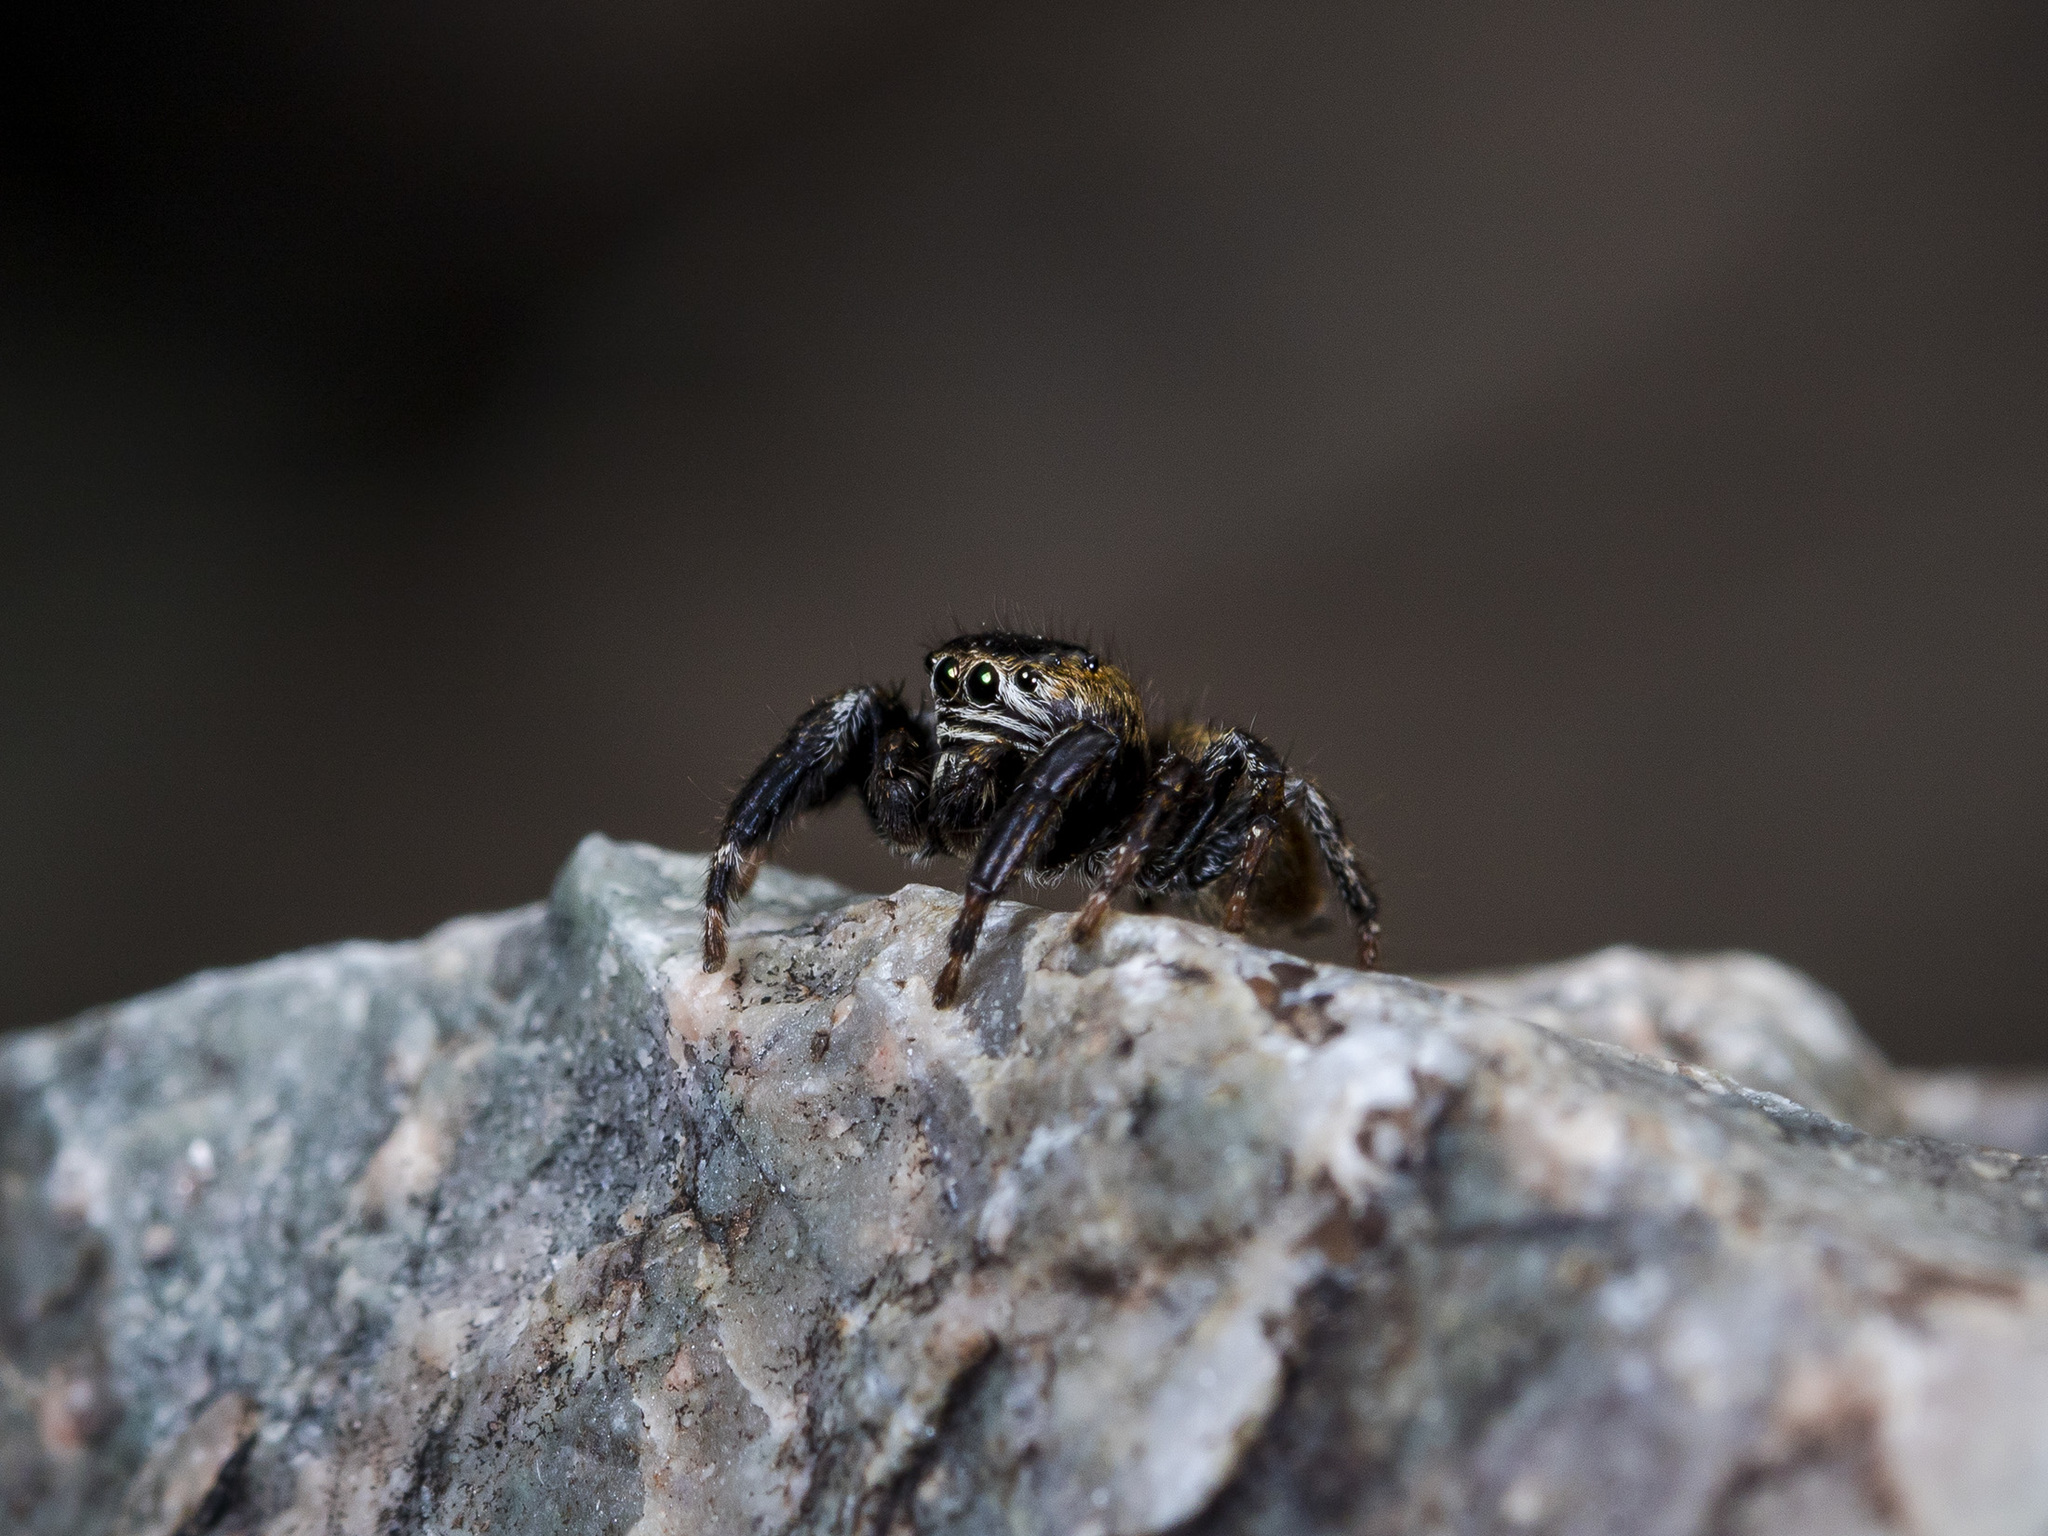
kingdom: Animalia
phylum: Arthropoda
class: Arachnida
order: Araneae
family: Salticidae
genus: Evarcha
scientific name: Evarcha arcuata
